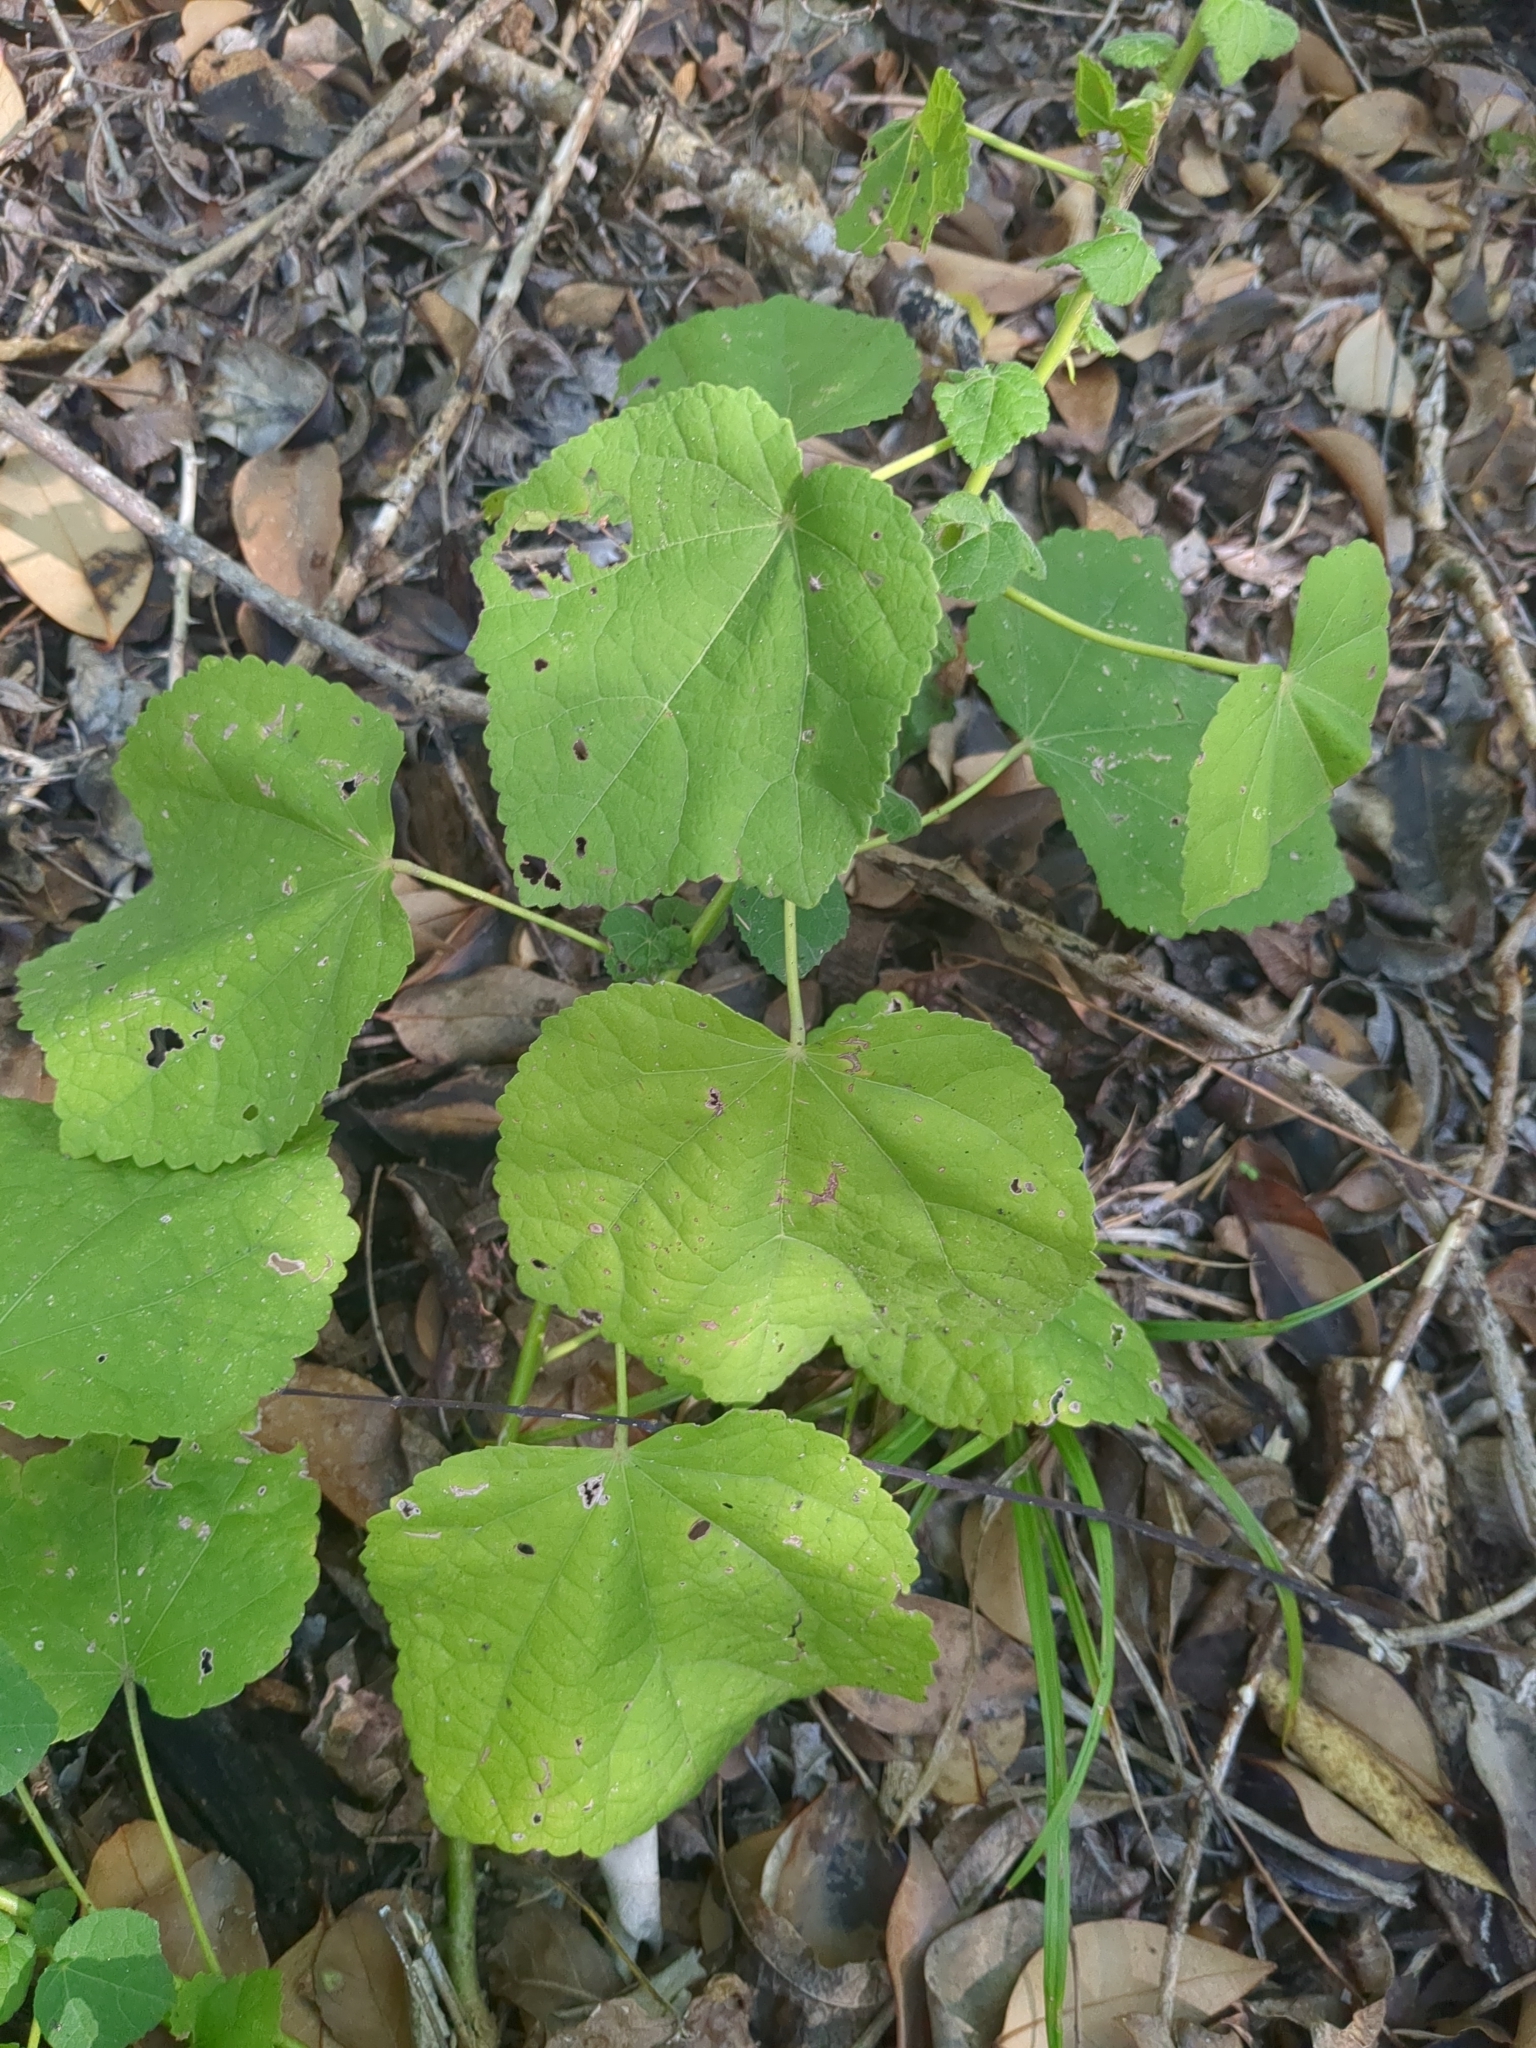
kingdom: Plantae
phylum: Tracheophyta
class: Magnoliopsida
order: Malvales
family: Malvaceae
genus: Malvaviscus
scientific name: Malvaviscus arboreus
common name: Wax mallow
